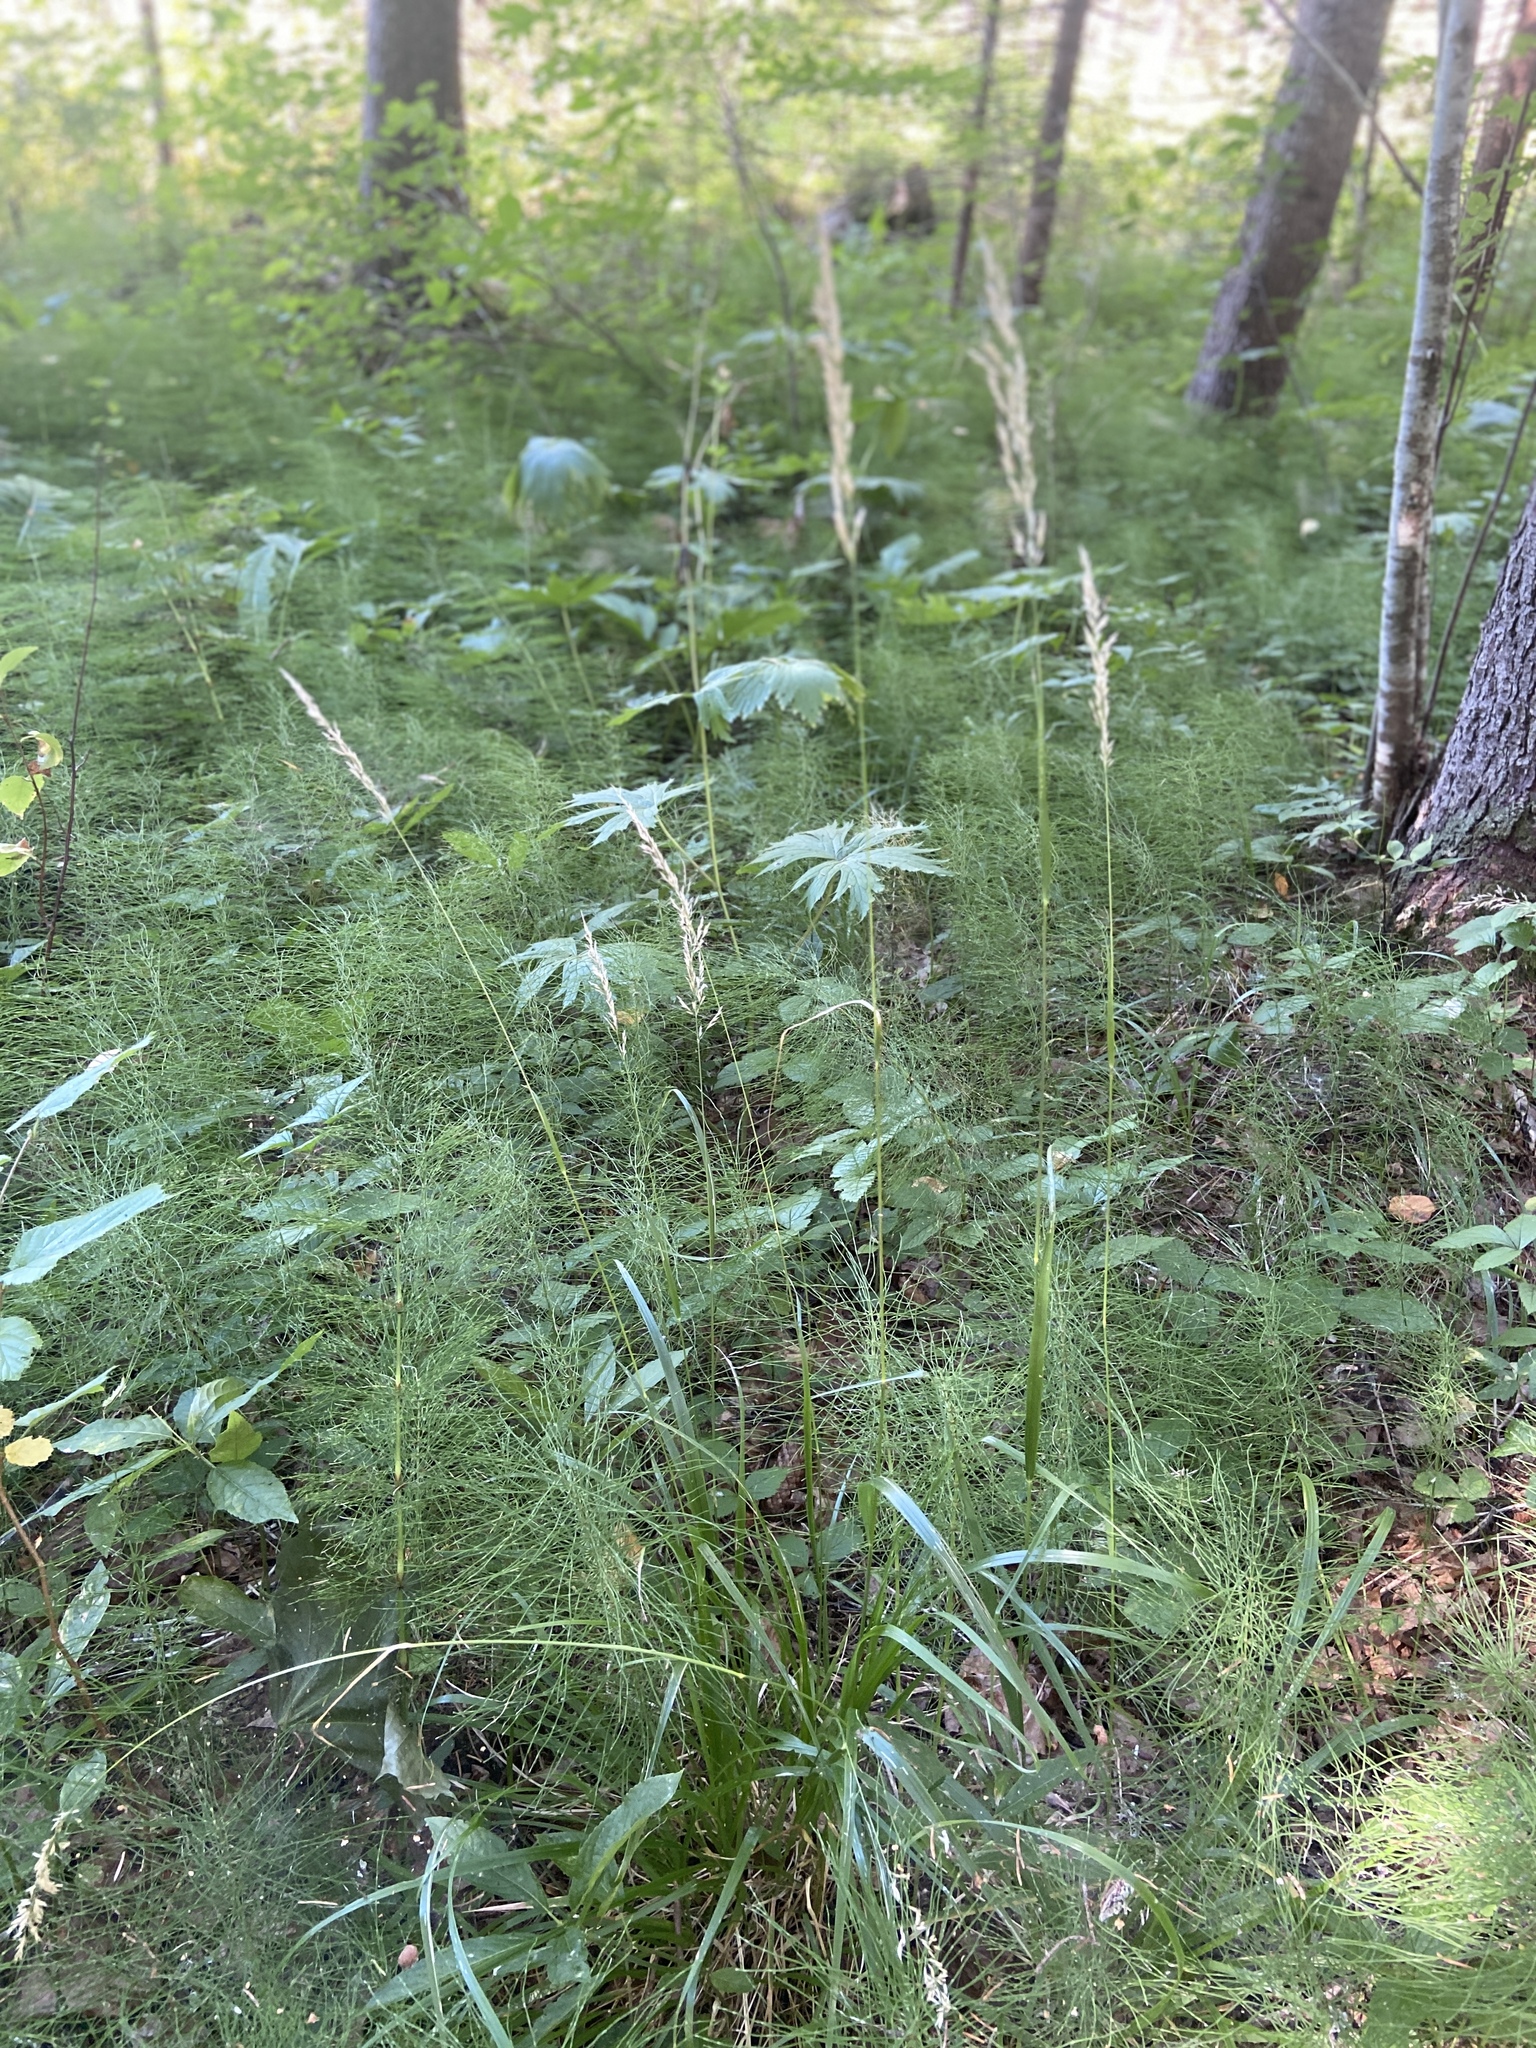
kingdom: Plantae
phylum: Tracheophyta
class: Liliopsida
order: Poales
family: Poaceae
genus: Calamagrostis
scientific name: Calamagrostis arundinacea
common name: Metskastik
